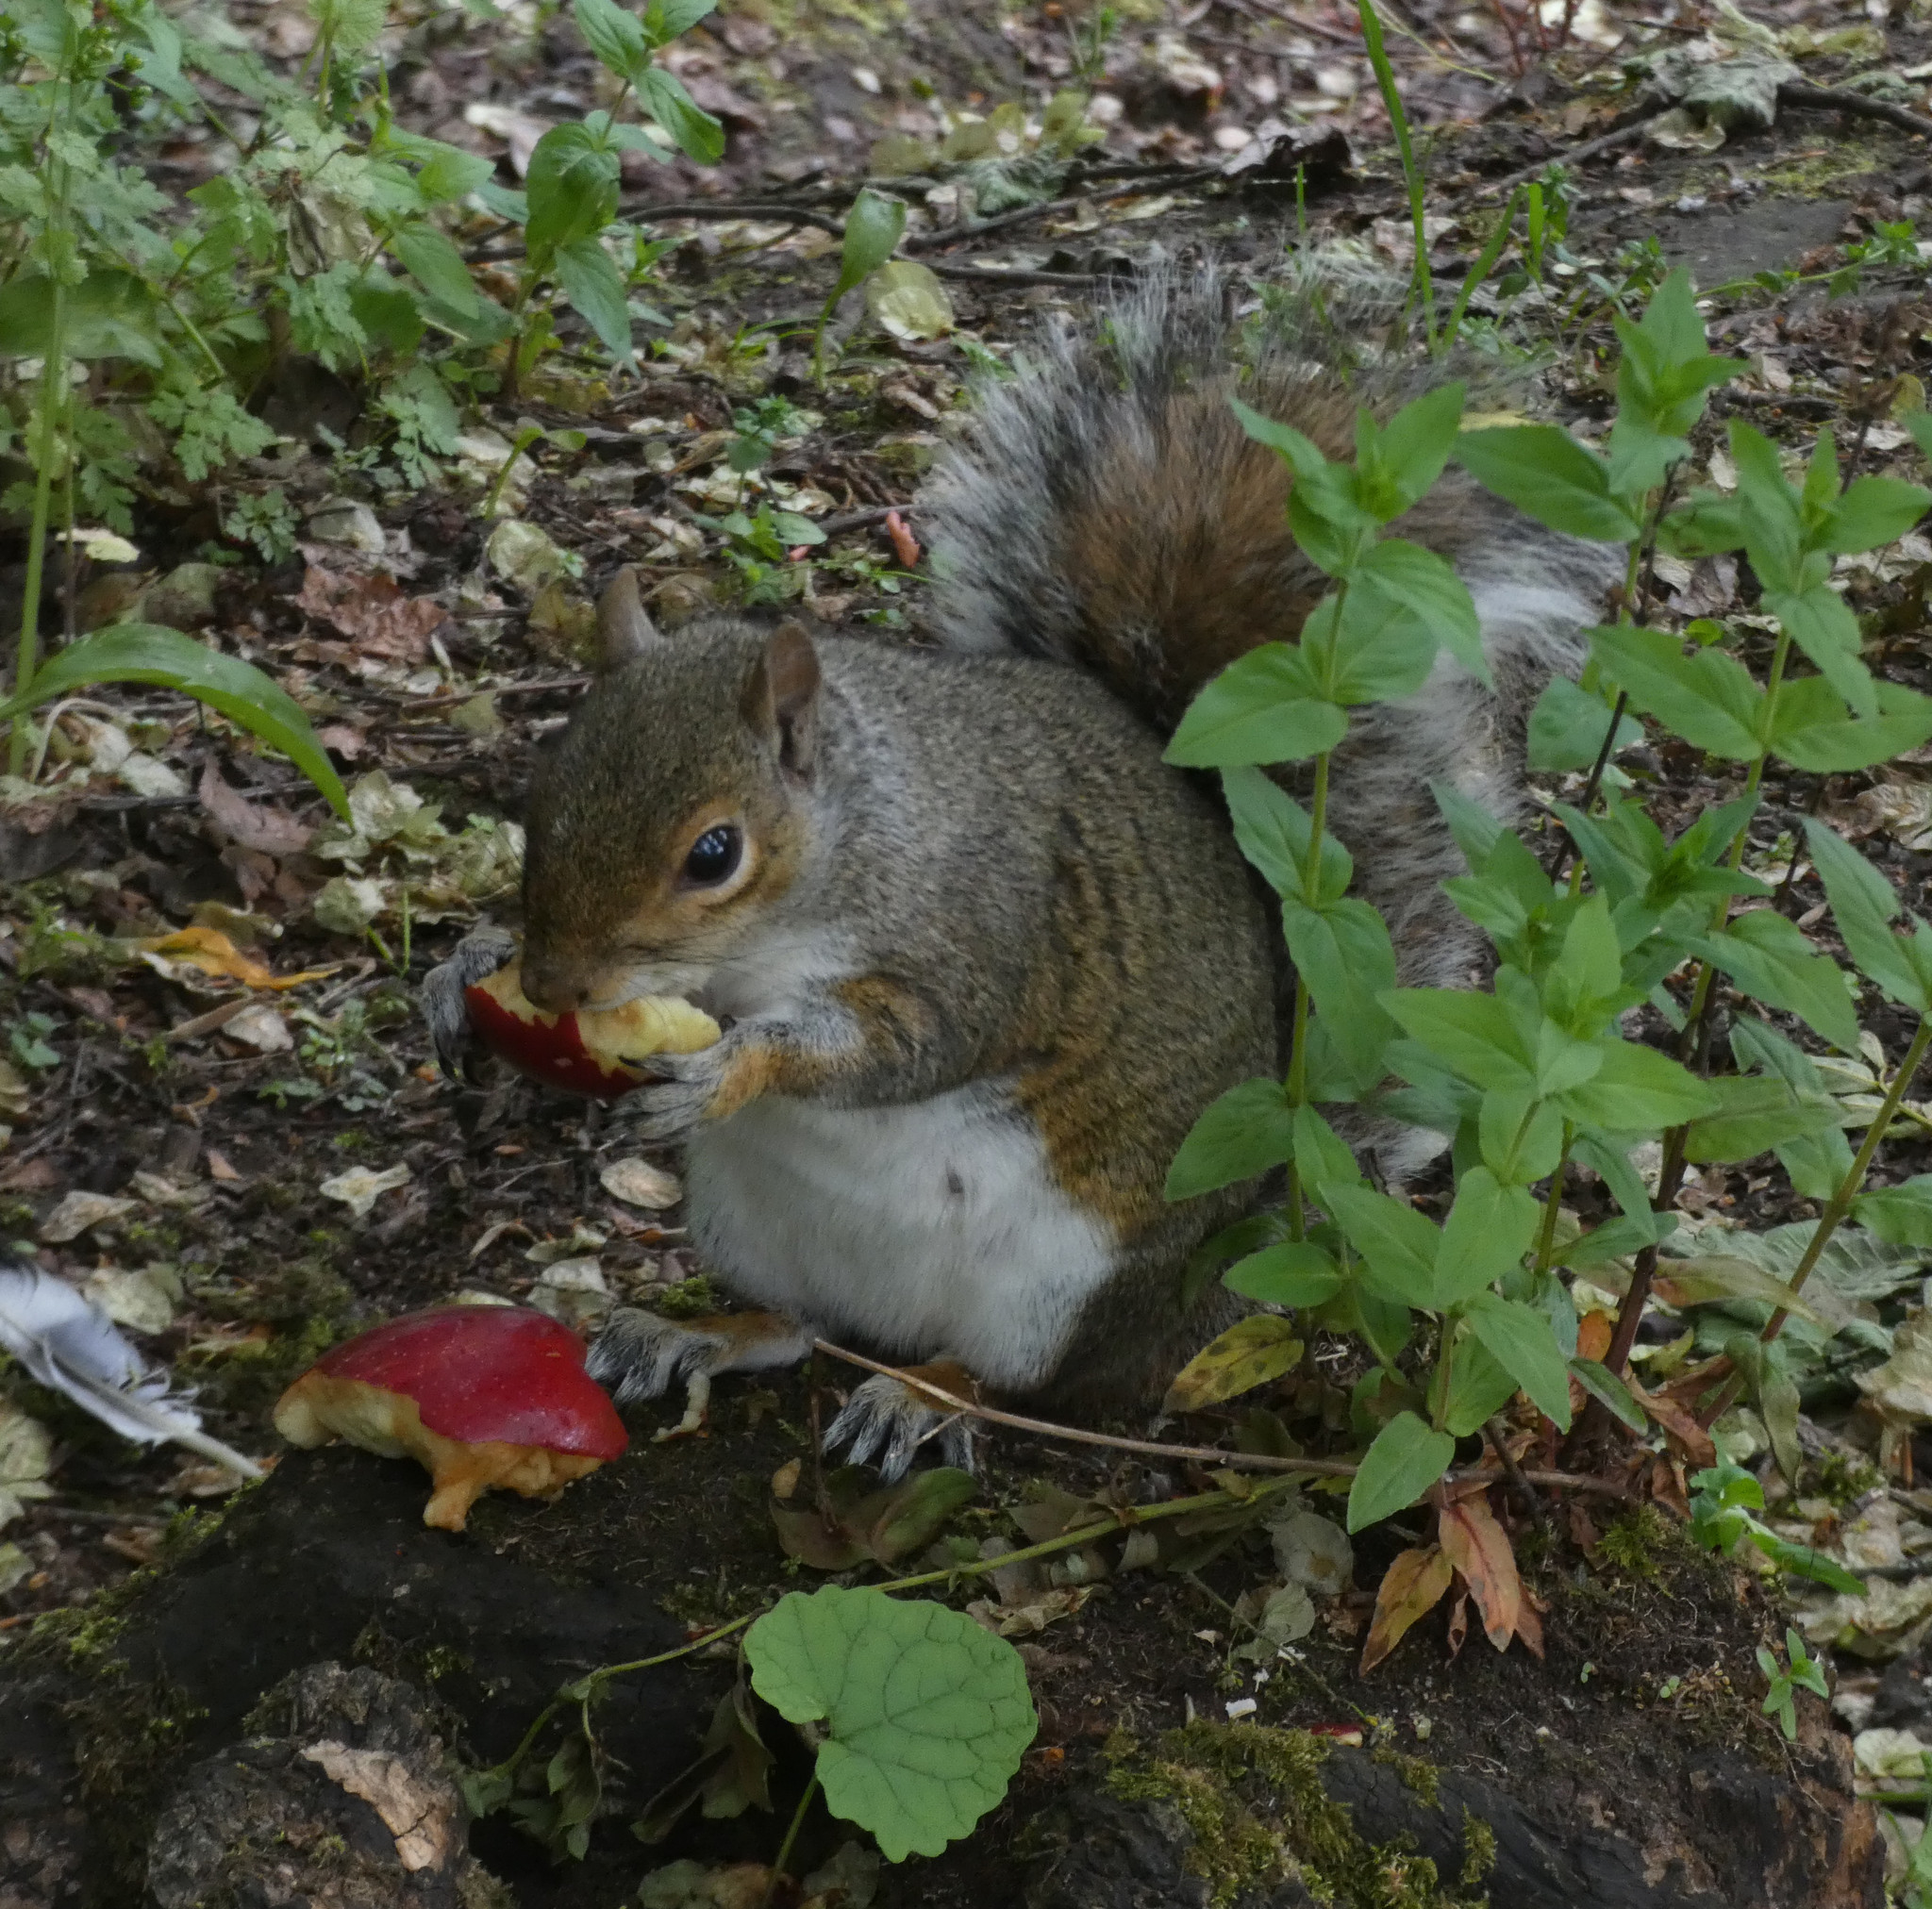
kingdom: Animalia
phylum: Chordata
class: Mammalia
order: Rodentia
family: Sciuridae
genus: Sciurus
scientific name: Sciurus carolinensis
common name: Eastern gray squirrel
